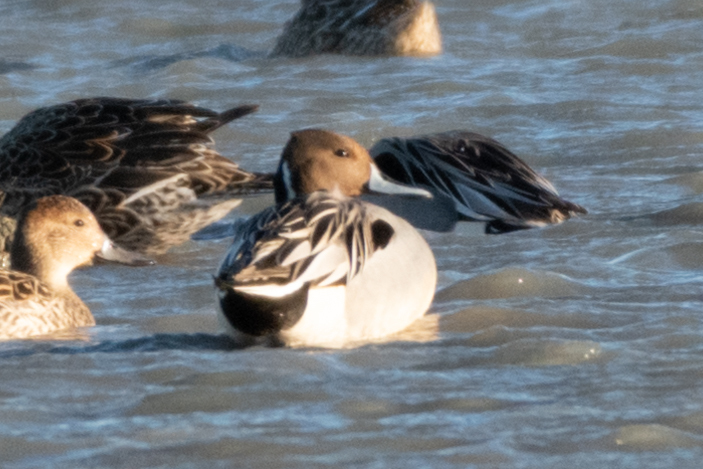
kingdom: Animalia
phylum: Chordata
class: Aves
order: Anseriformes
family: Anatidae
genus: Anas
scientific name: Anas acuta
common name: Northern pintail
